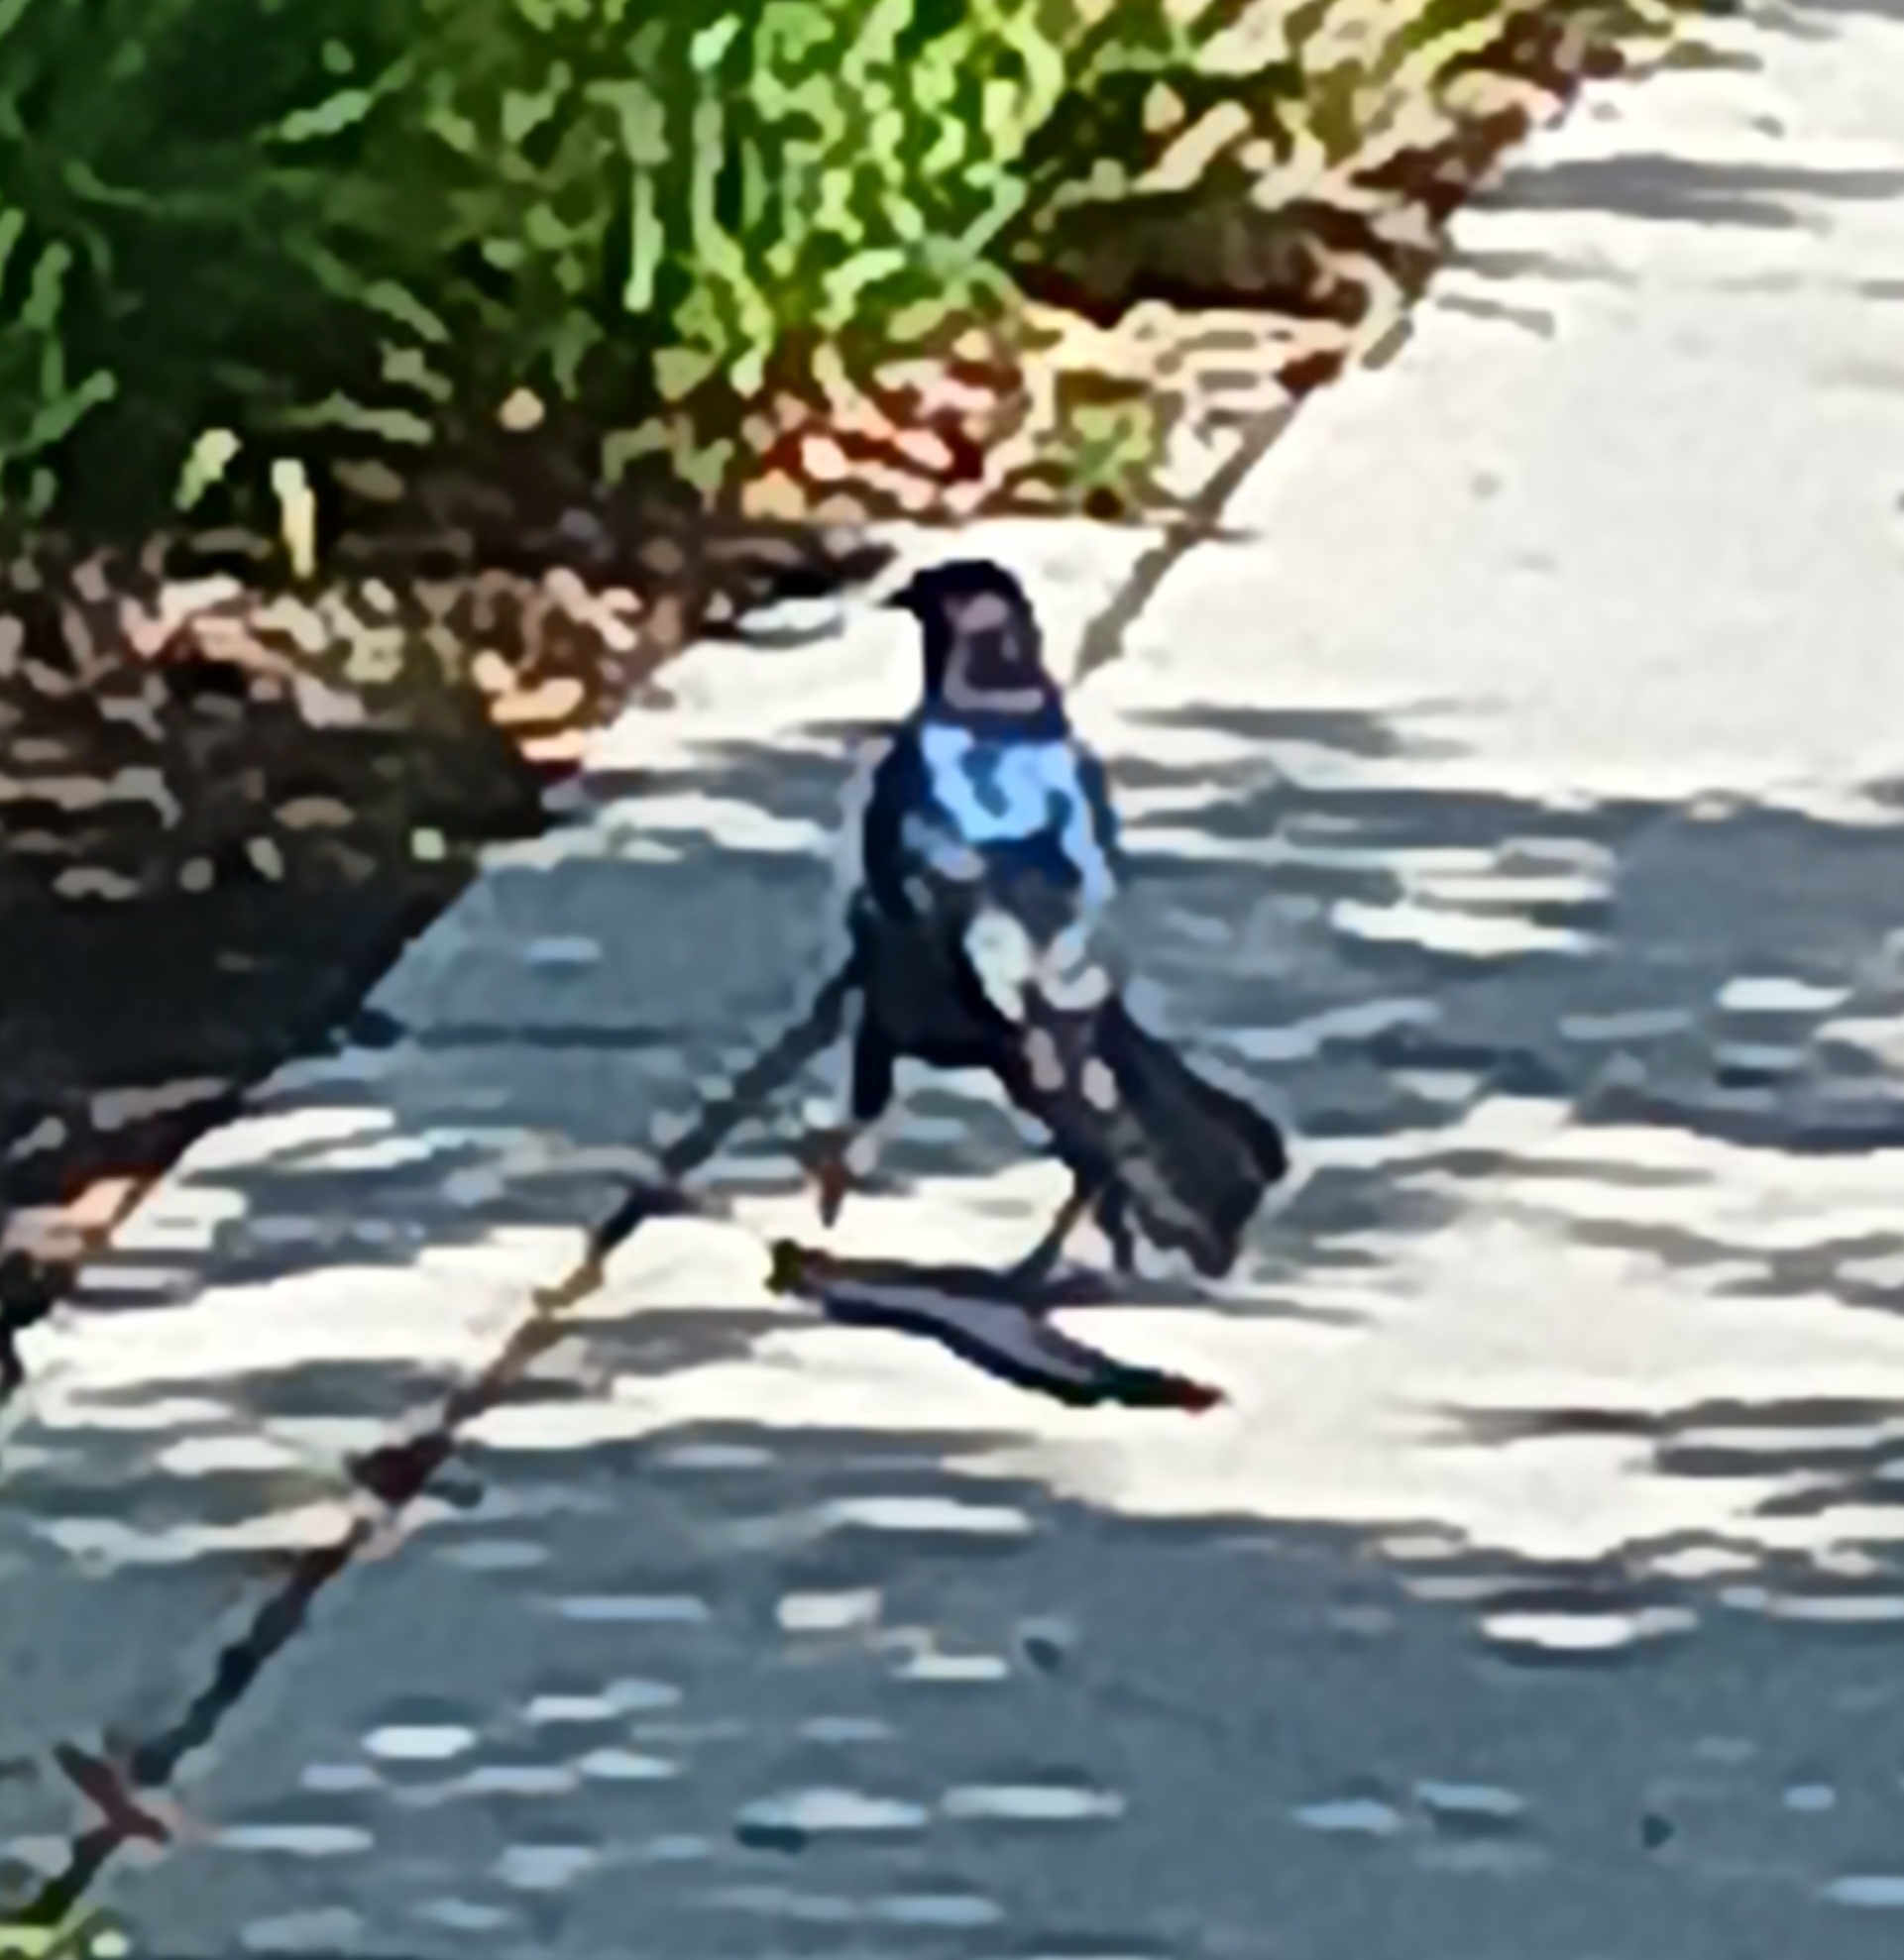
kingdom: Animalia
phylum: Chordata
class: Aves
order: Passeriformes
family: Icteridae
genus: Quiscalus
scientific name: Quiscalus major
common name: Boat-tailed grackle
